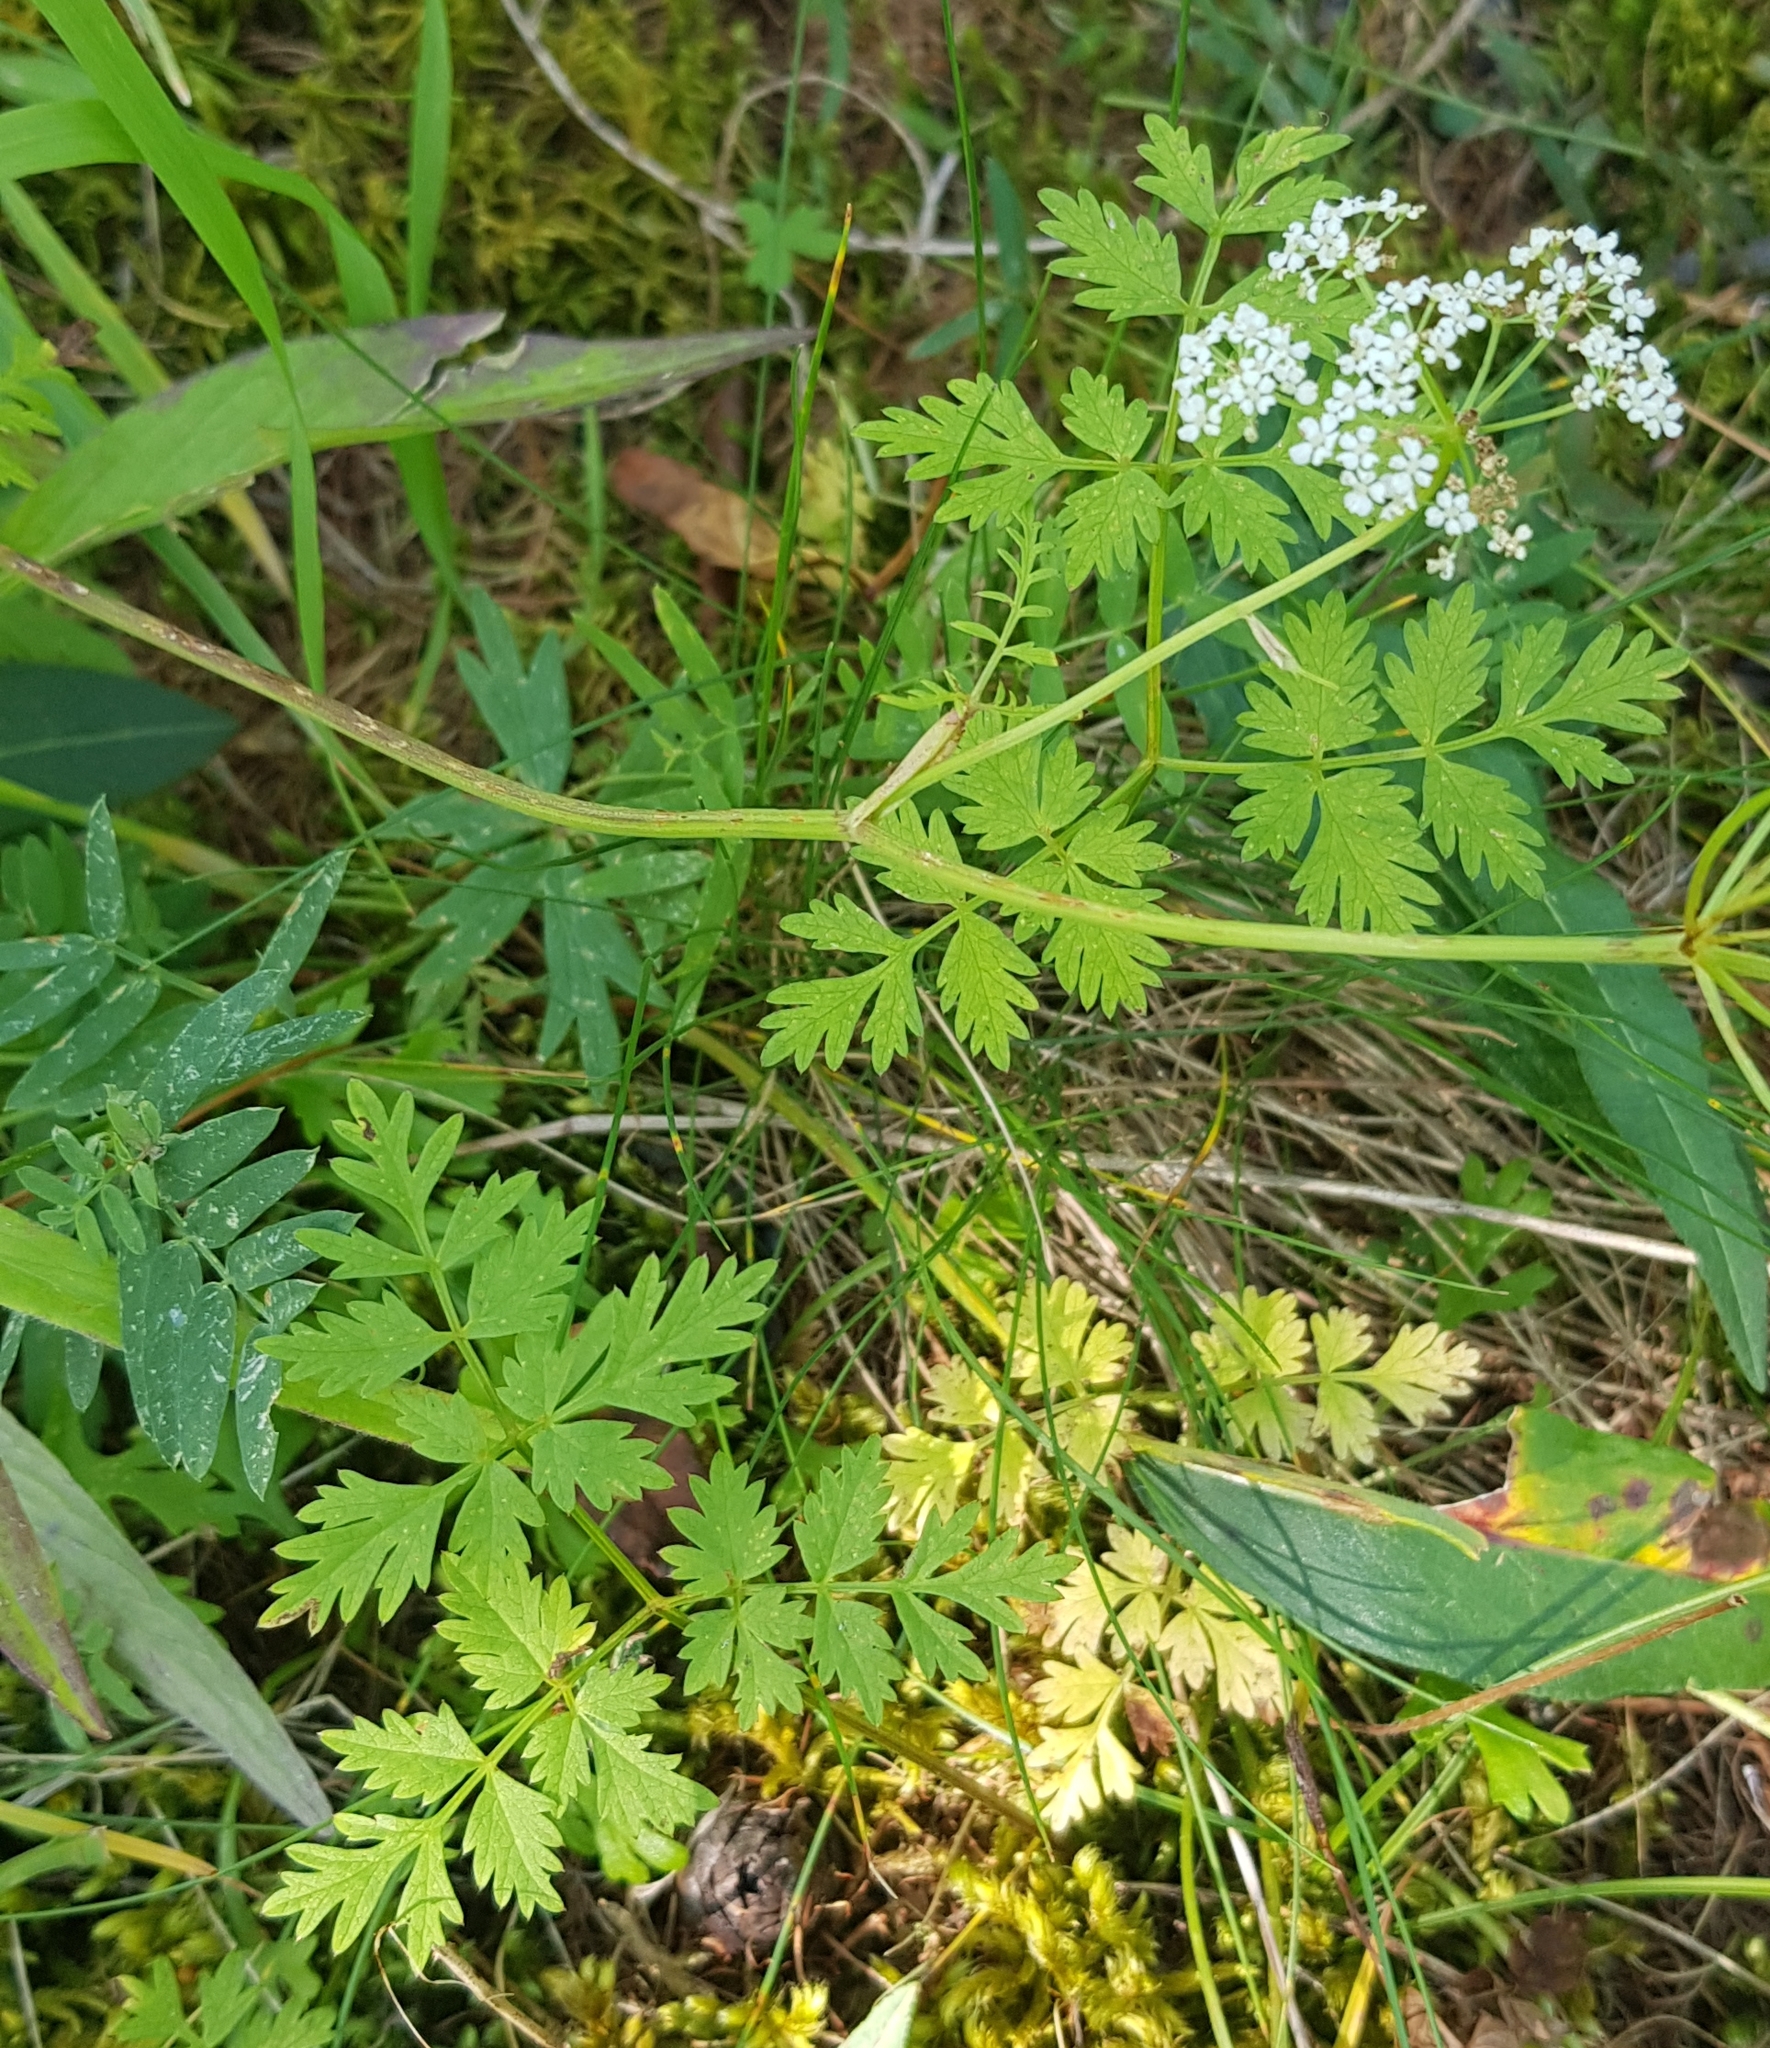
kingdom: Plantae
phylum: Tracheophyta
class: Magnoliopsida
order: Apiales
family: Apiaceae
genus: Aegopodium
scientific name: Aegopodium alpestre
